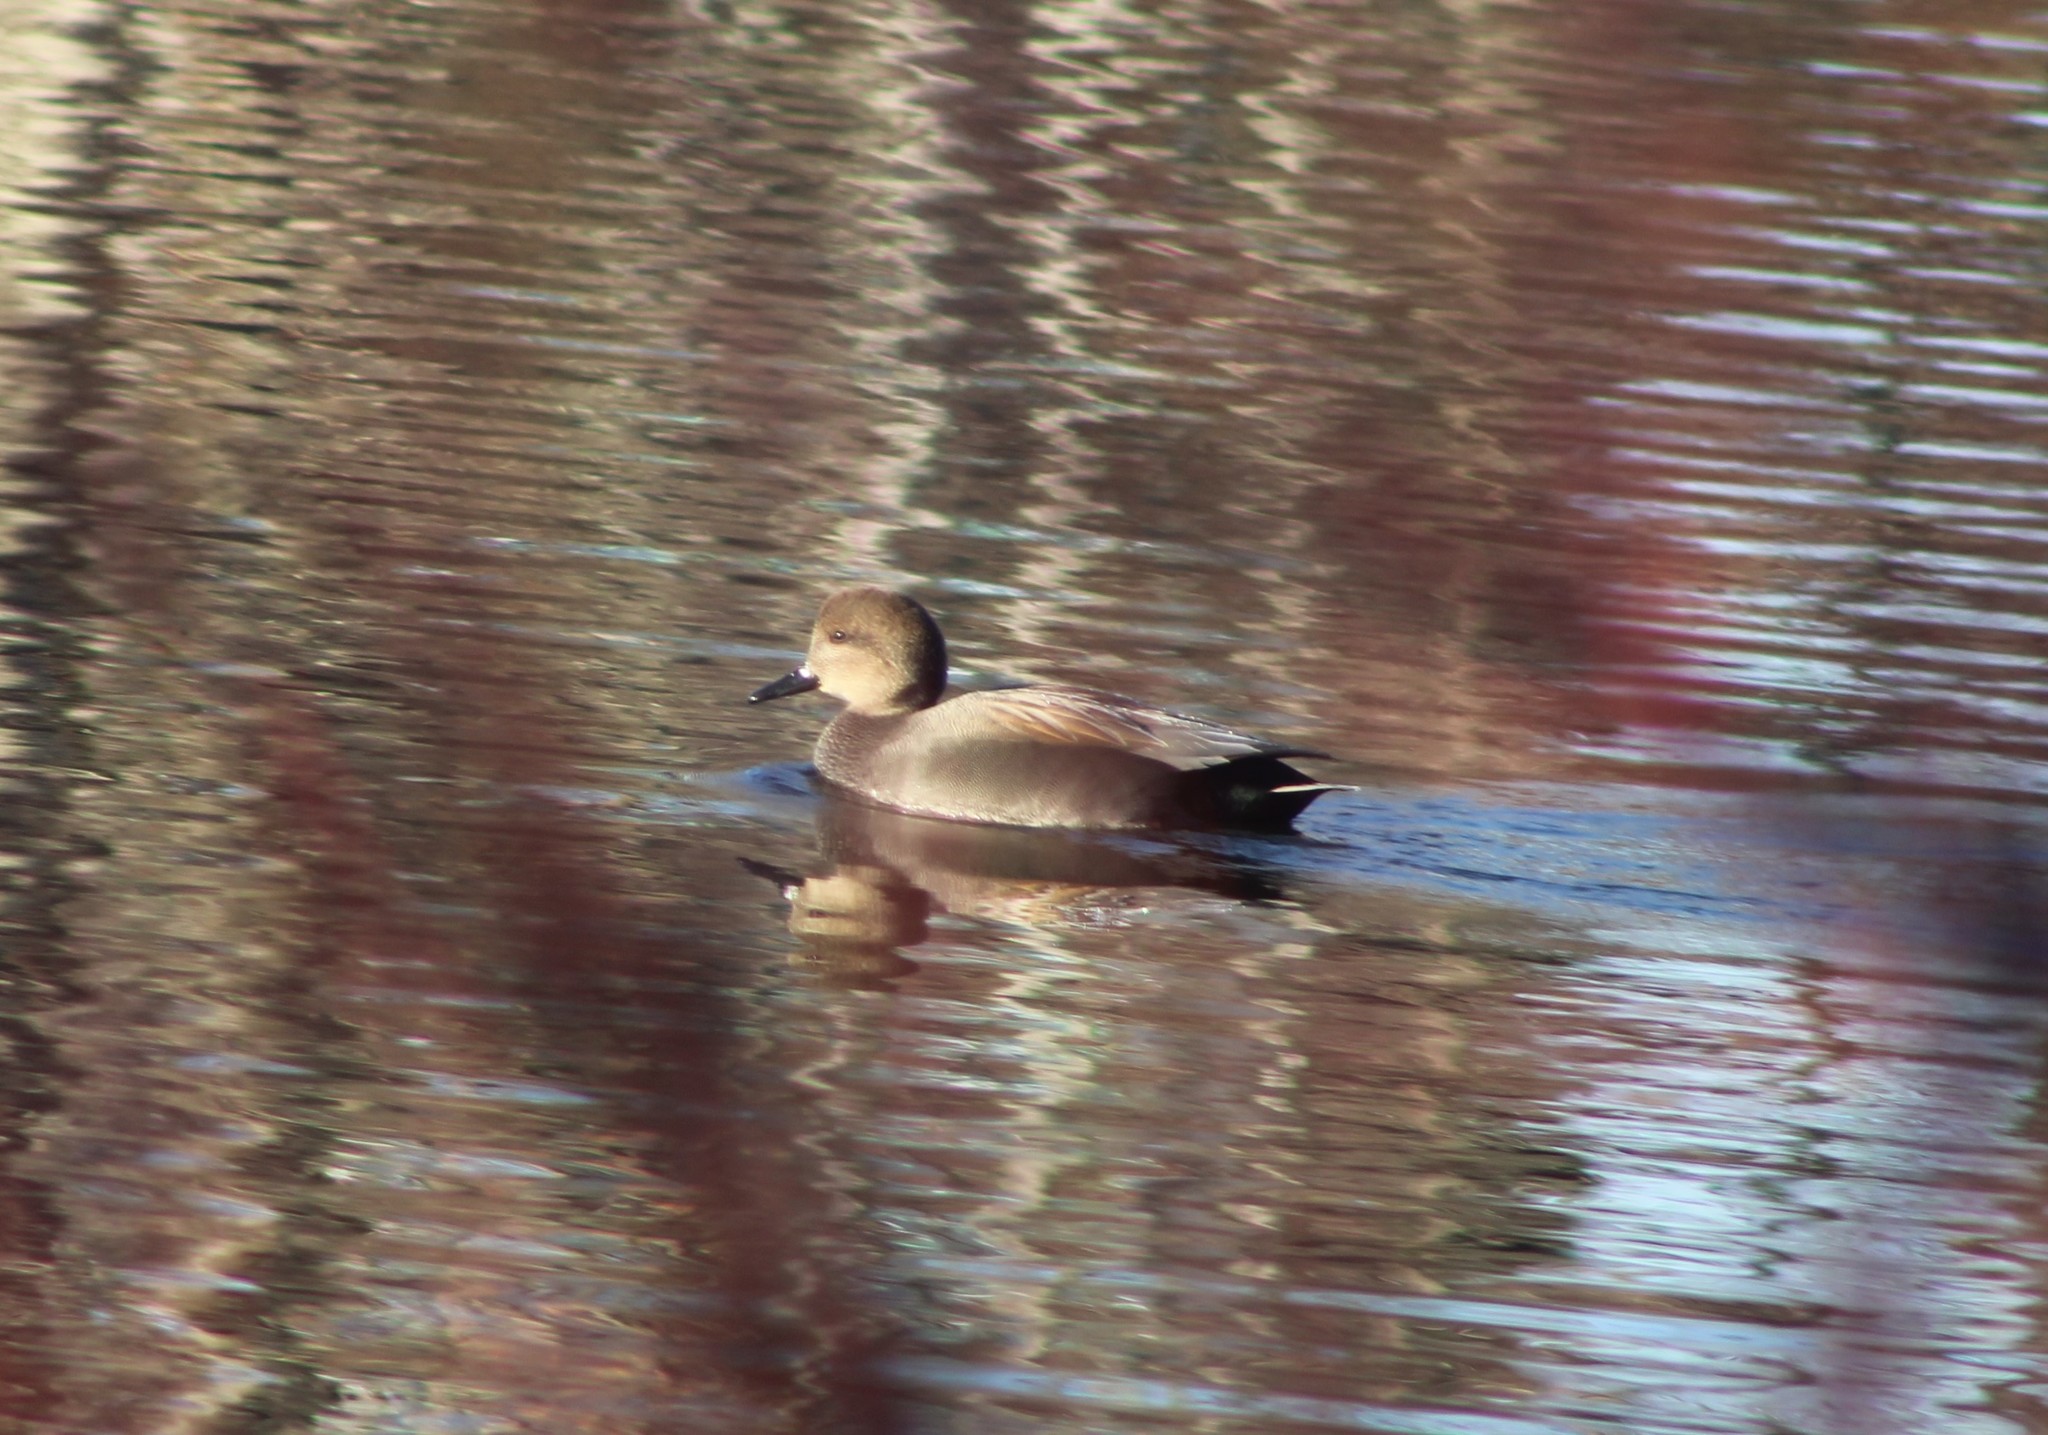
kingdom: Animalia
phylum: Chordata
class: Aves
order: Anseriformes
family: Anatidae
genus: Mareca
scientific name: Mareca strepera
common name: Gadwall
